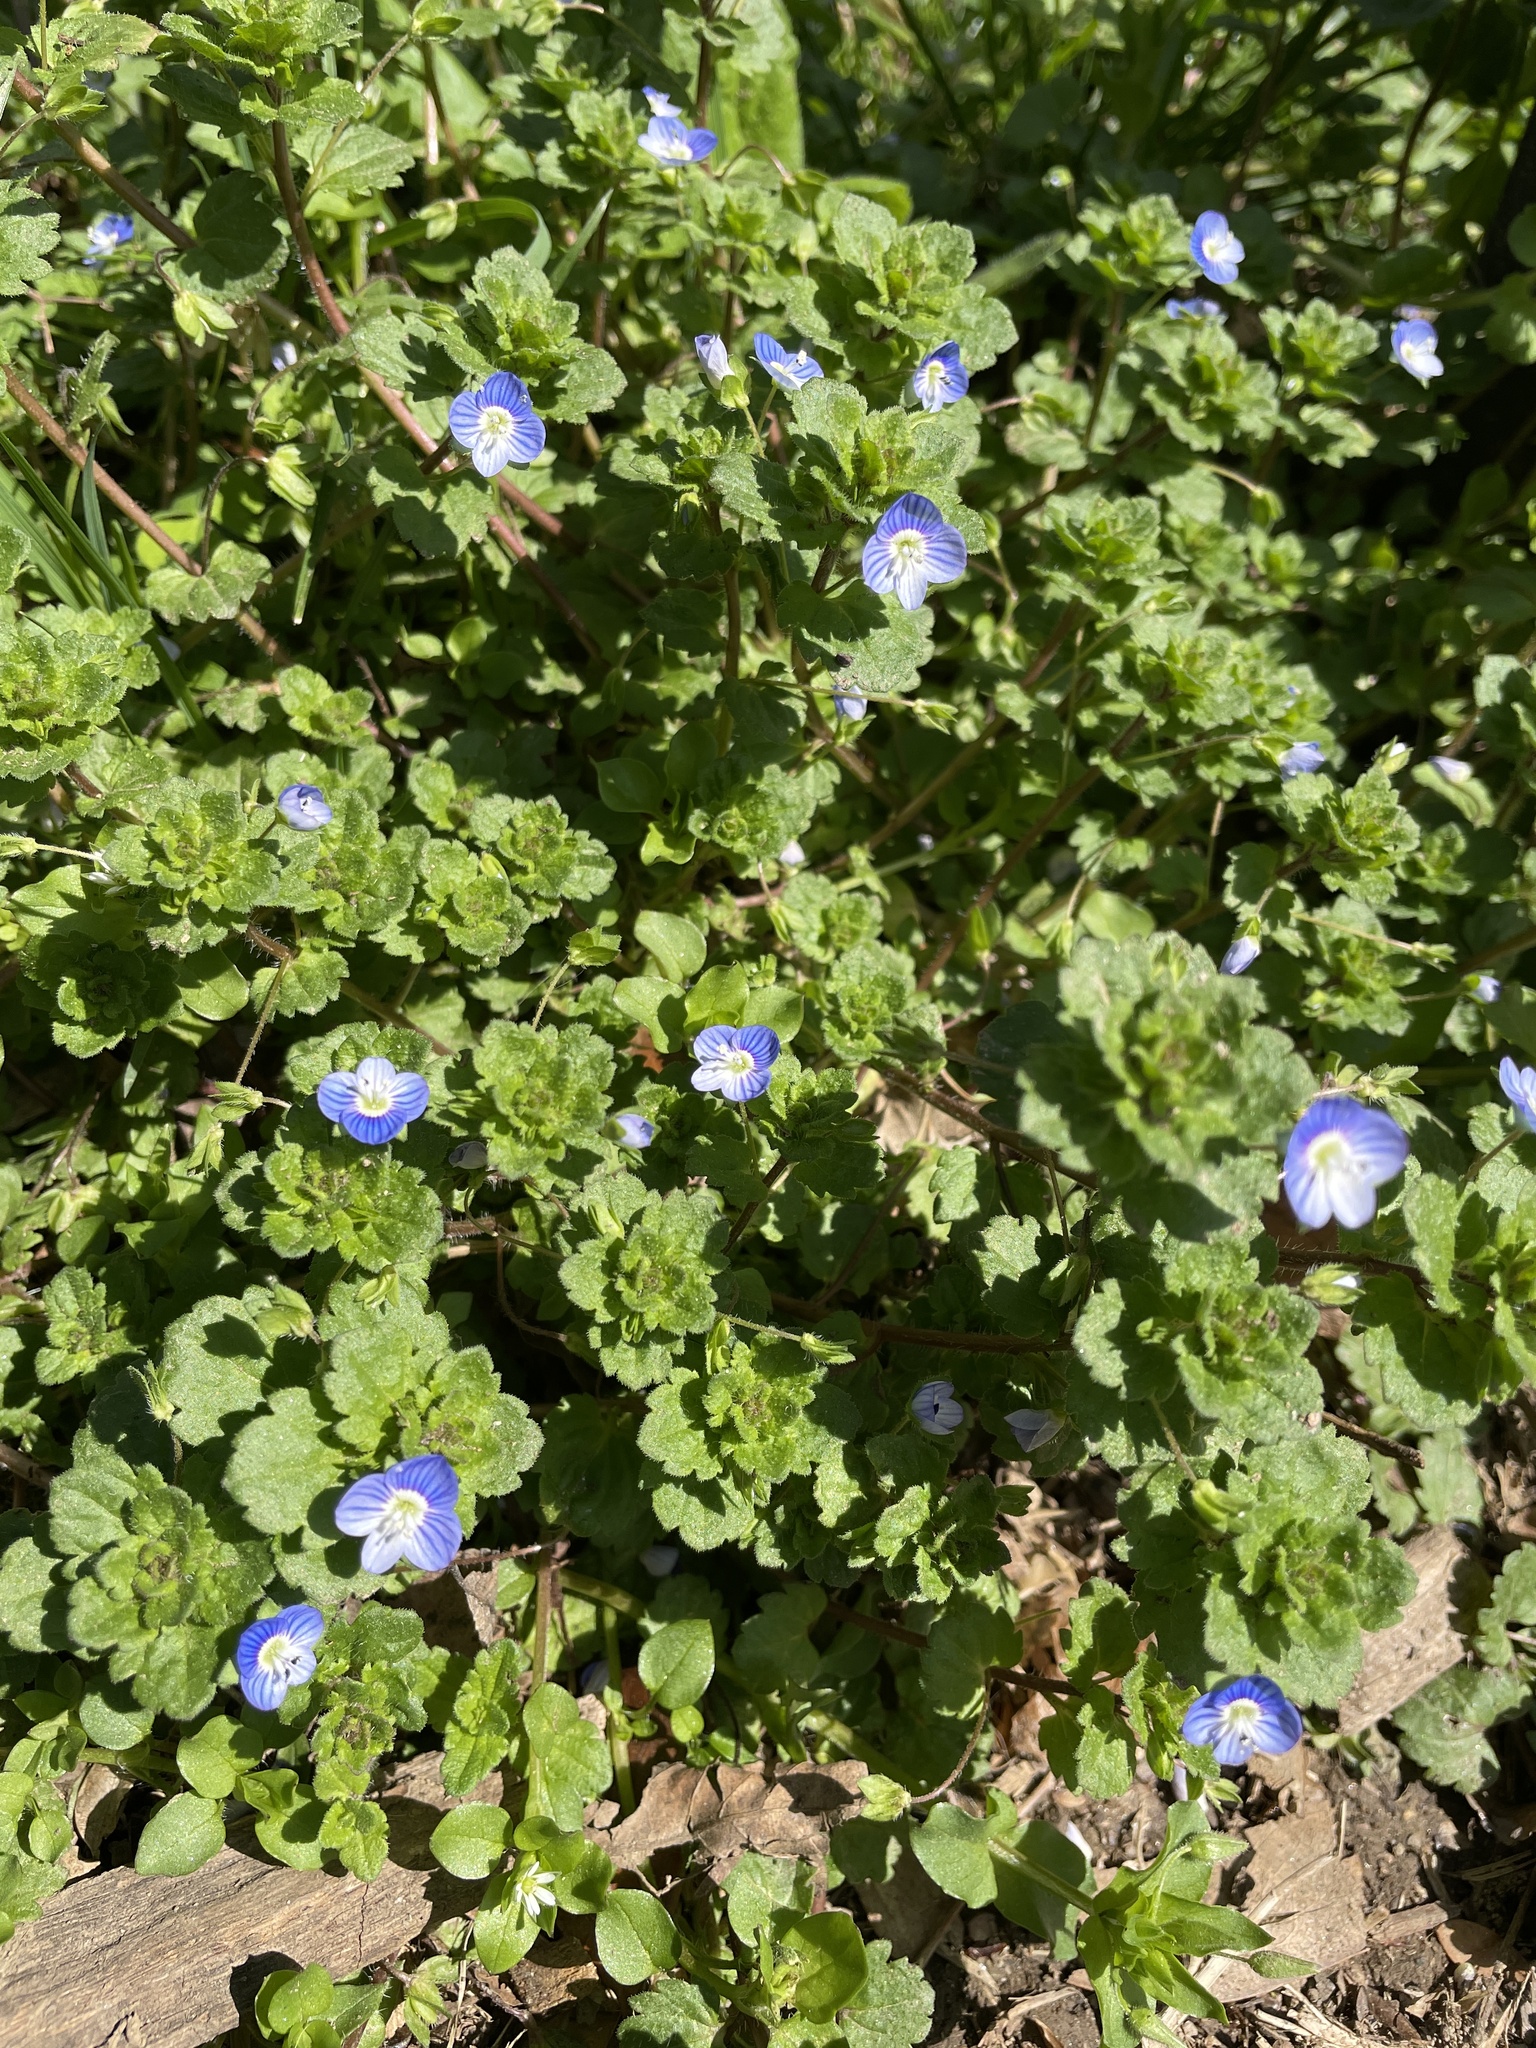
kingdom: Plantae
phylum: Tracheophyta
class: Magnoliopsida
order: Lamiales
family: Plantaginaceae
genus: Veronica
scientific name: Veronica persica
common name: Common field-speedwell
